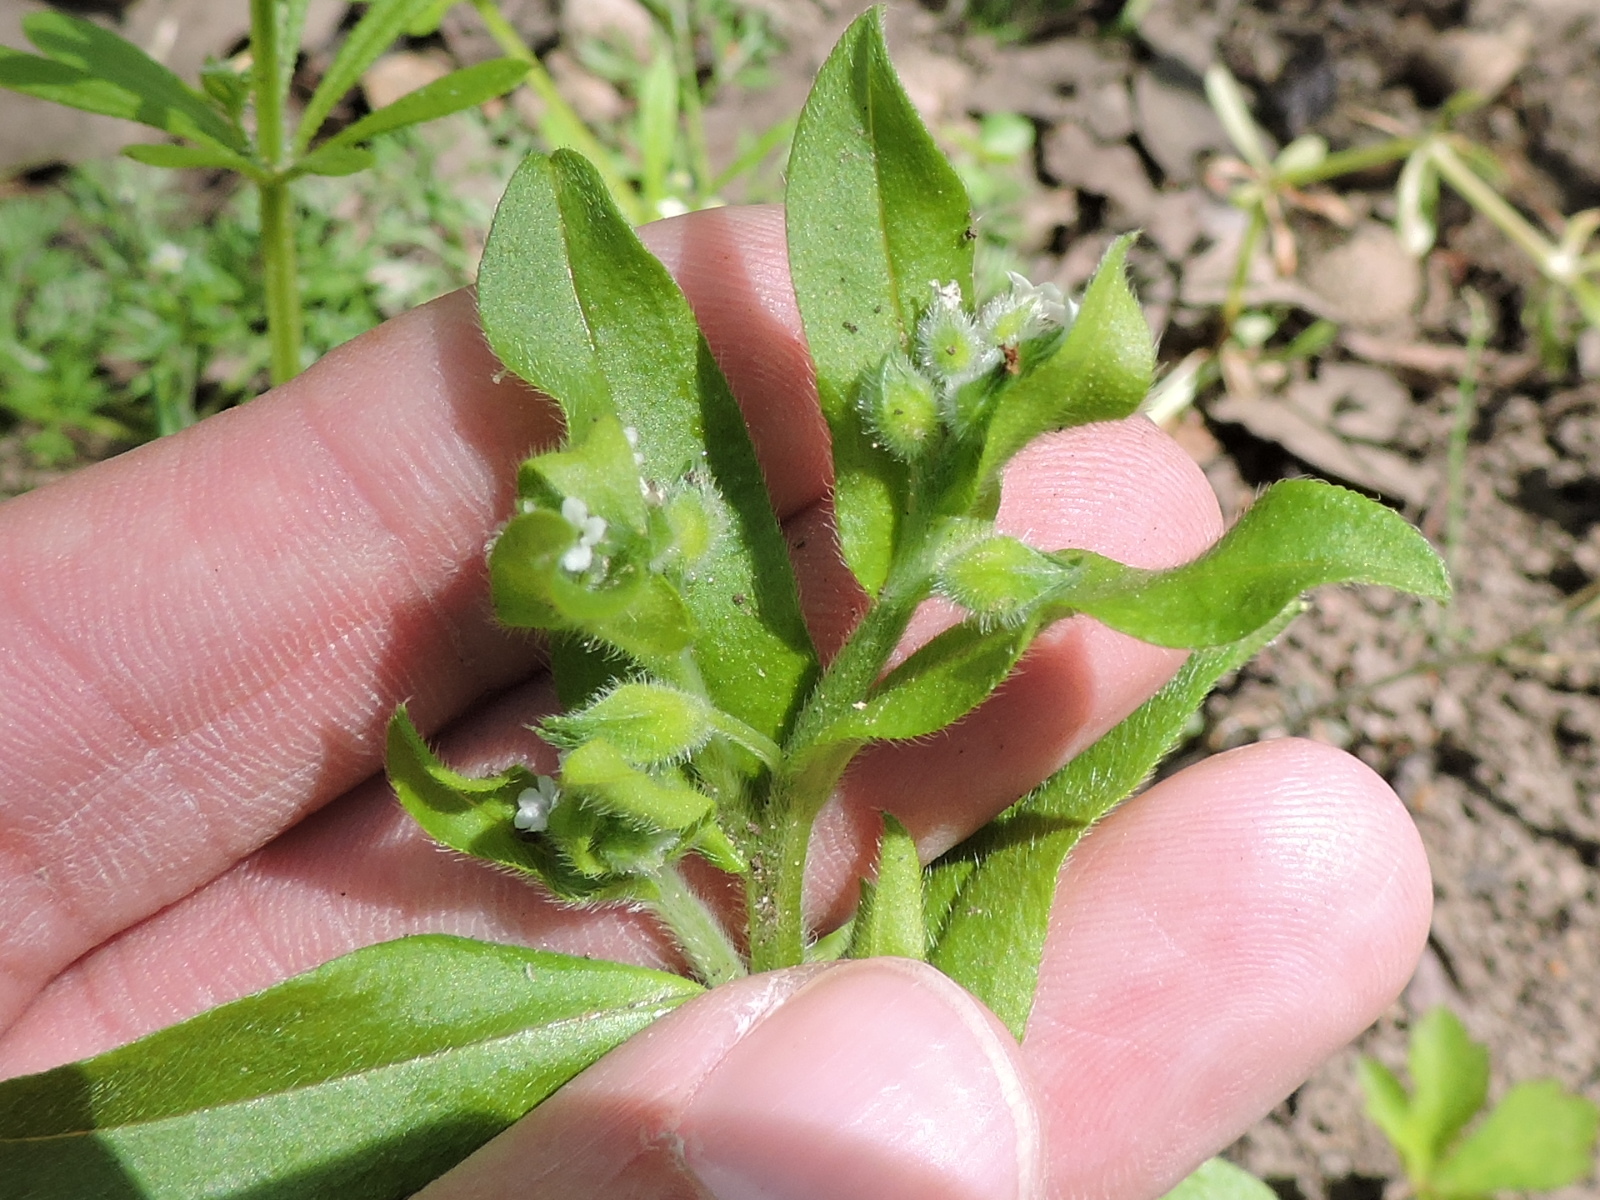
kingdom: Plantae
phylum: Tracheophyta
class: Magnoliopsida
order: Boraginales
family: Boraginaceae
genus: Myosotis
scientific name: Myosotis macrosperma
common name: Large-seed forget-me-not
